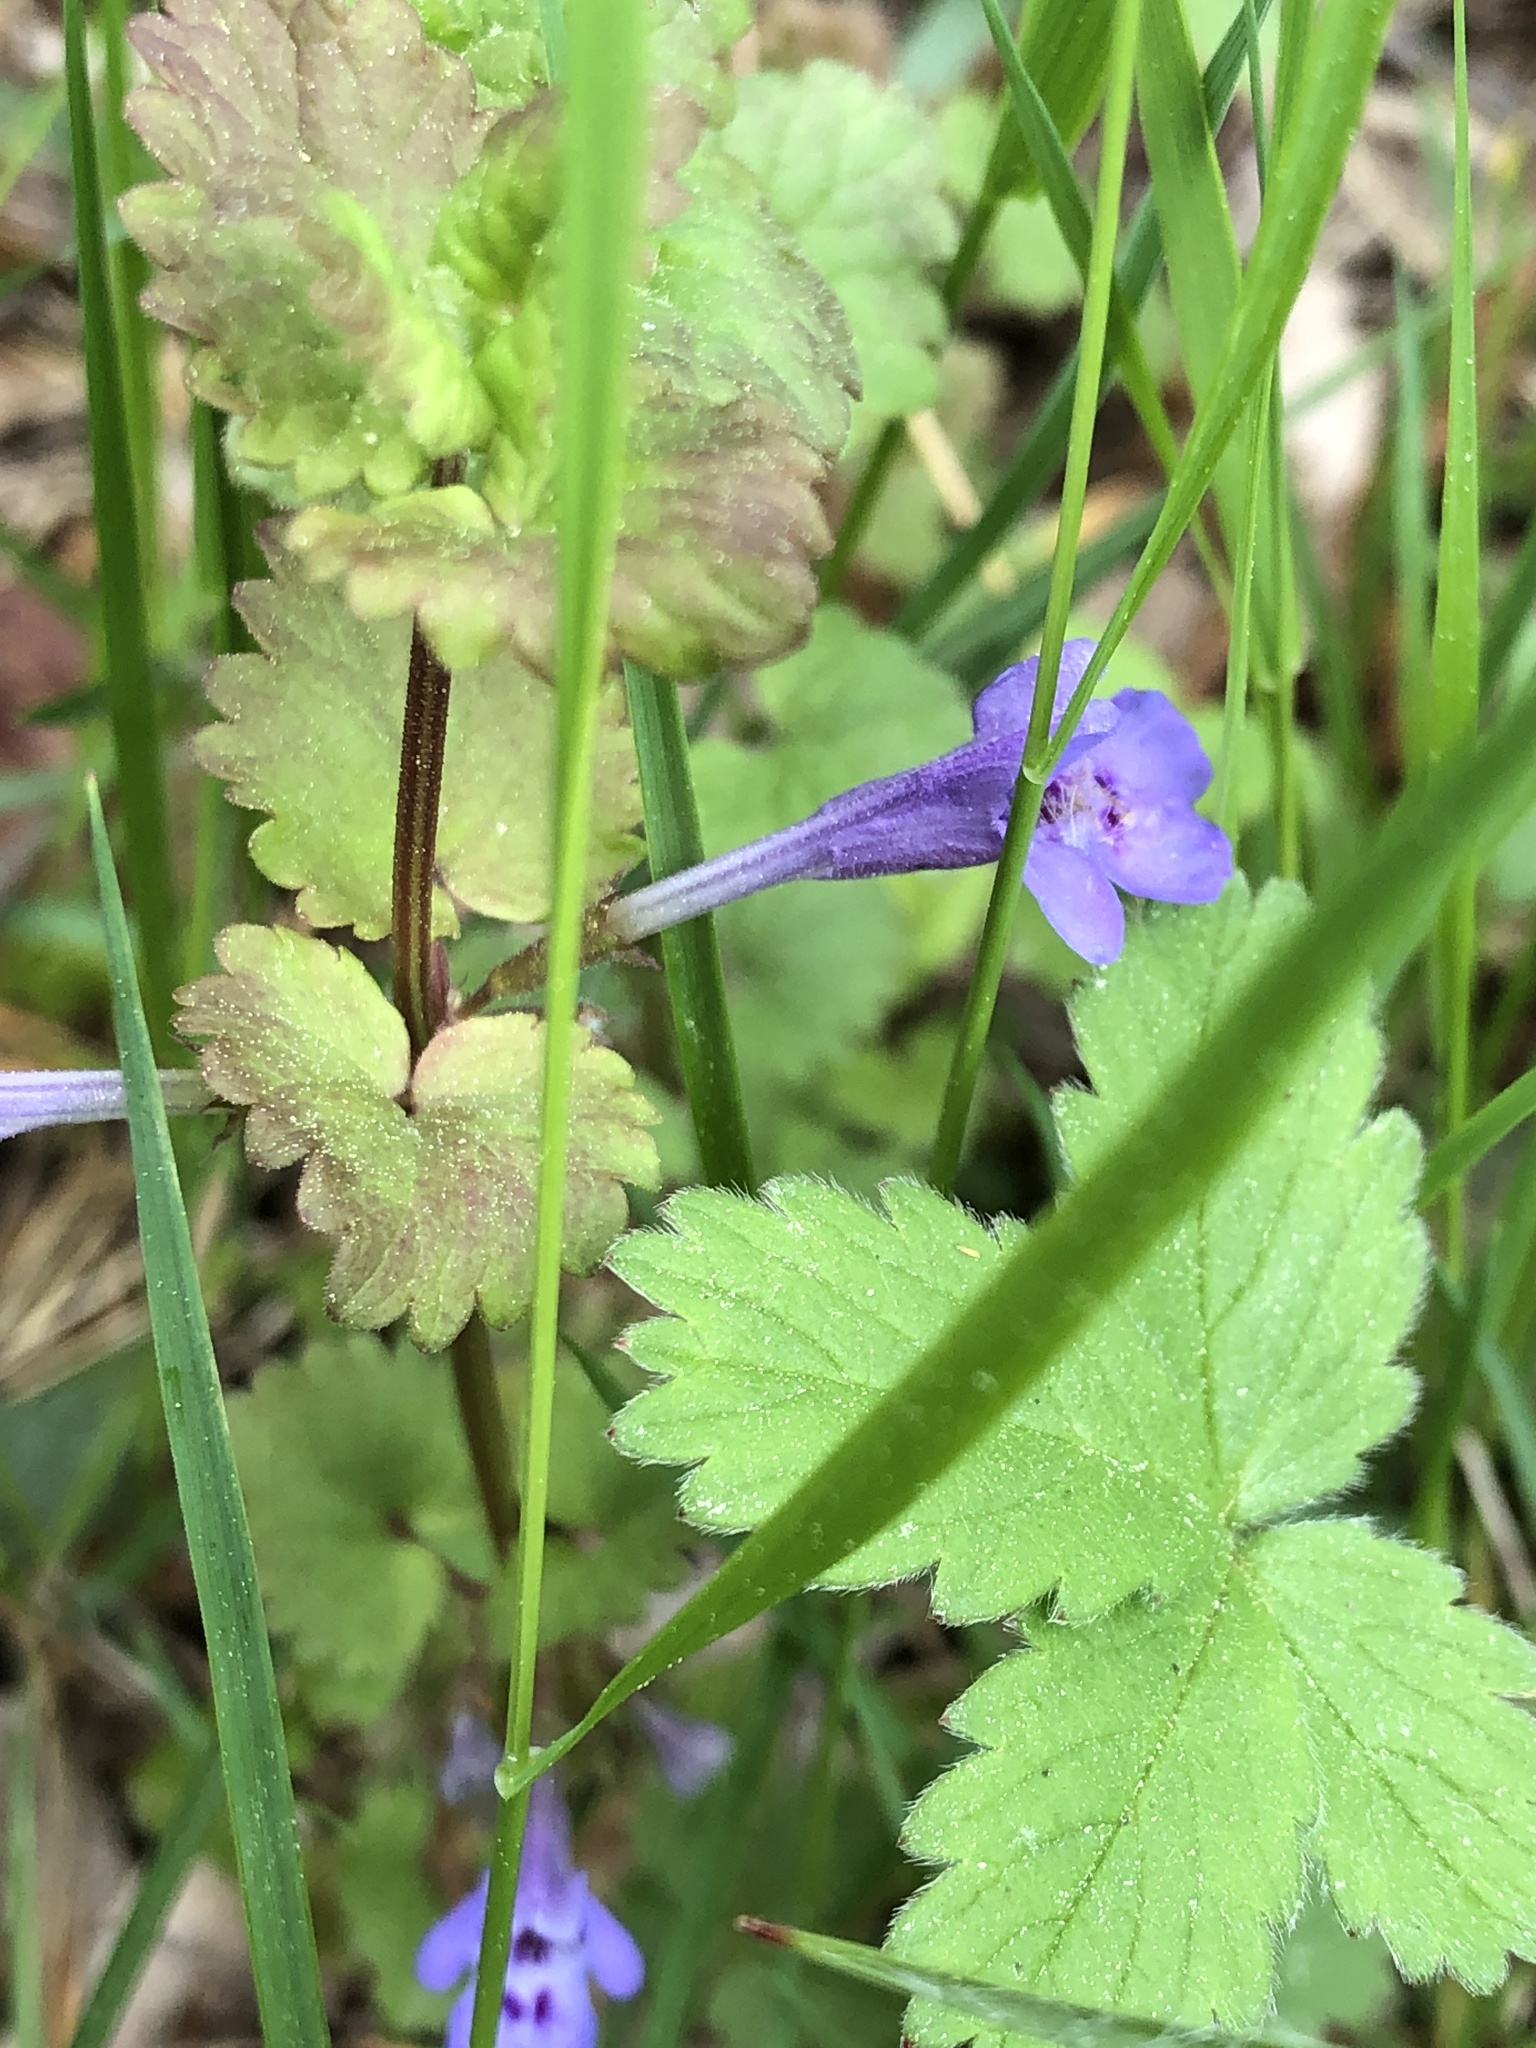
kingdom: Plantae
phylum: Tracheophyta
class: Magnoliopsida
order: Lamiales
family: Lamiaceae
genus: Glechoma
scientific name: Glechoma hederacea
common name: Ground ivy
